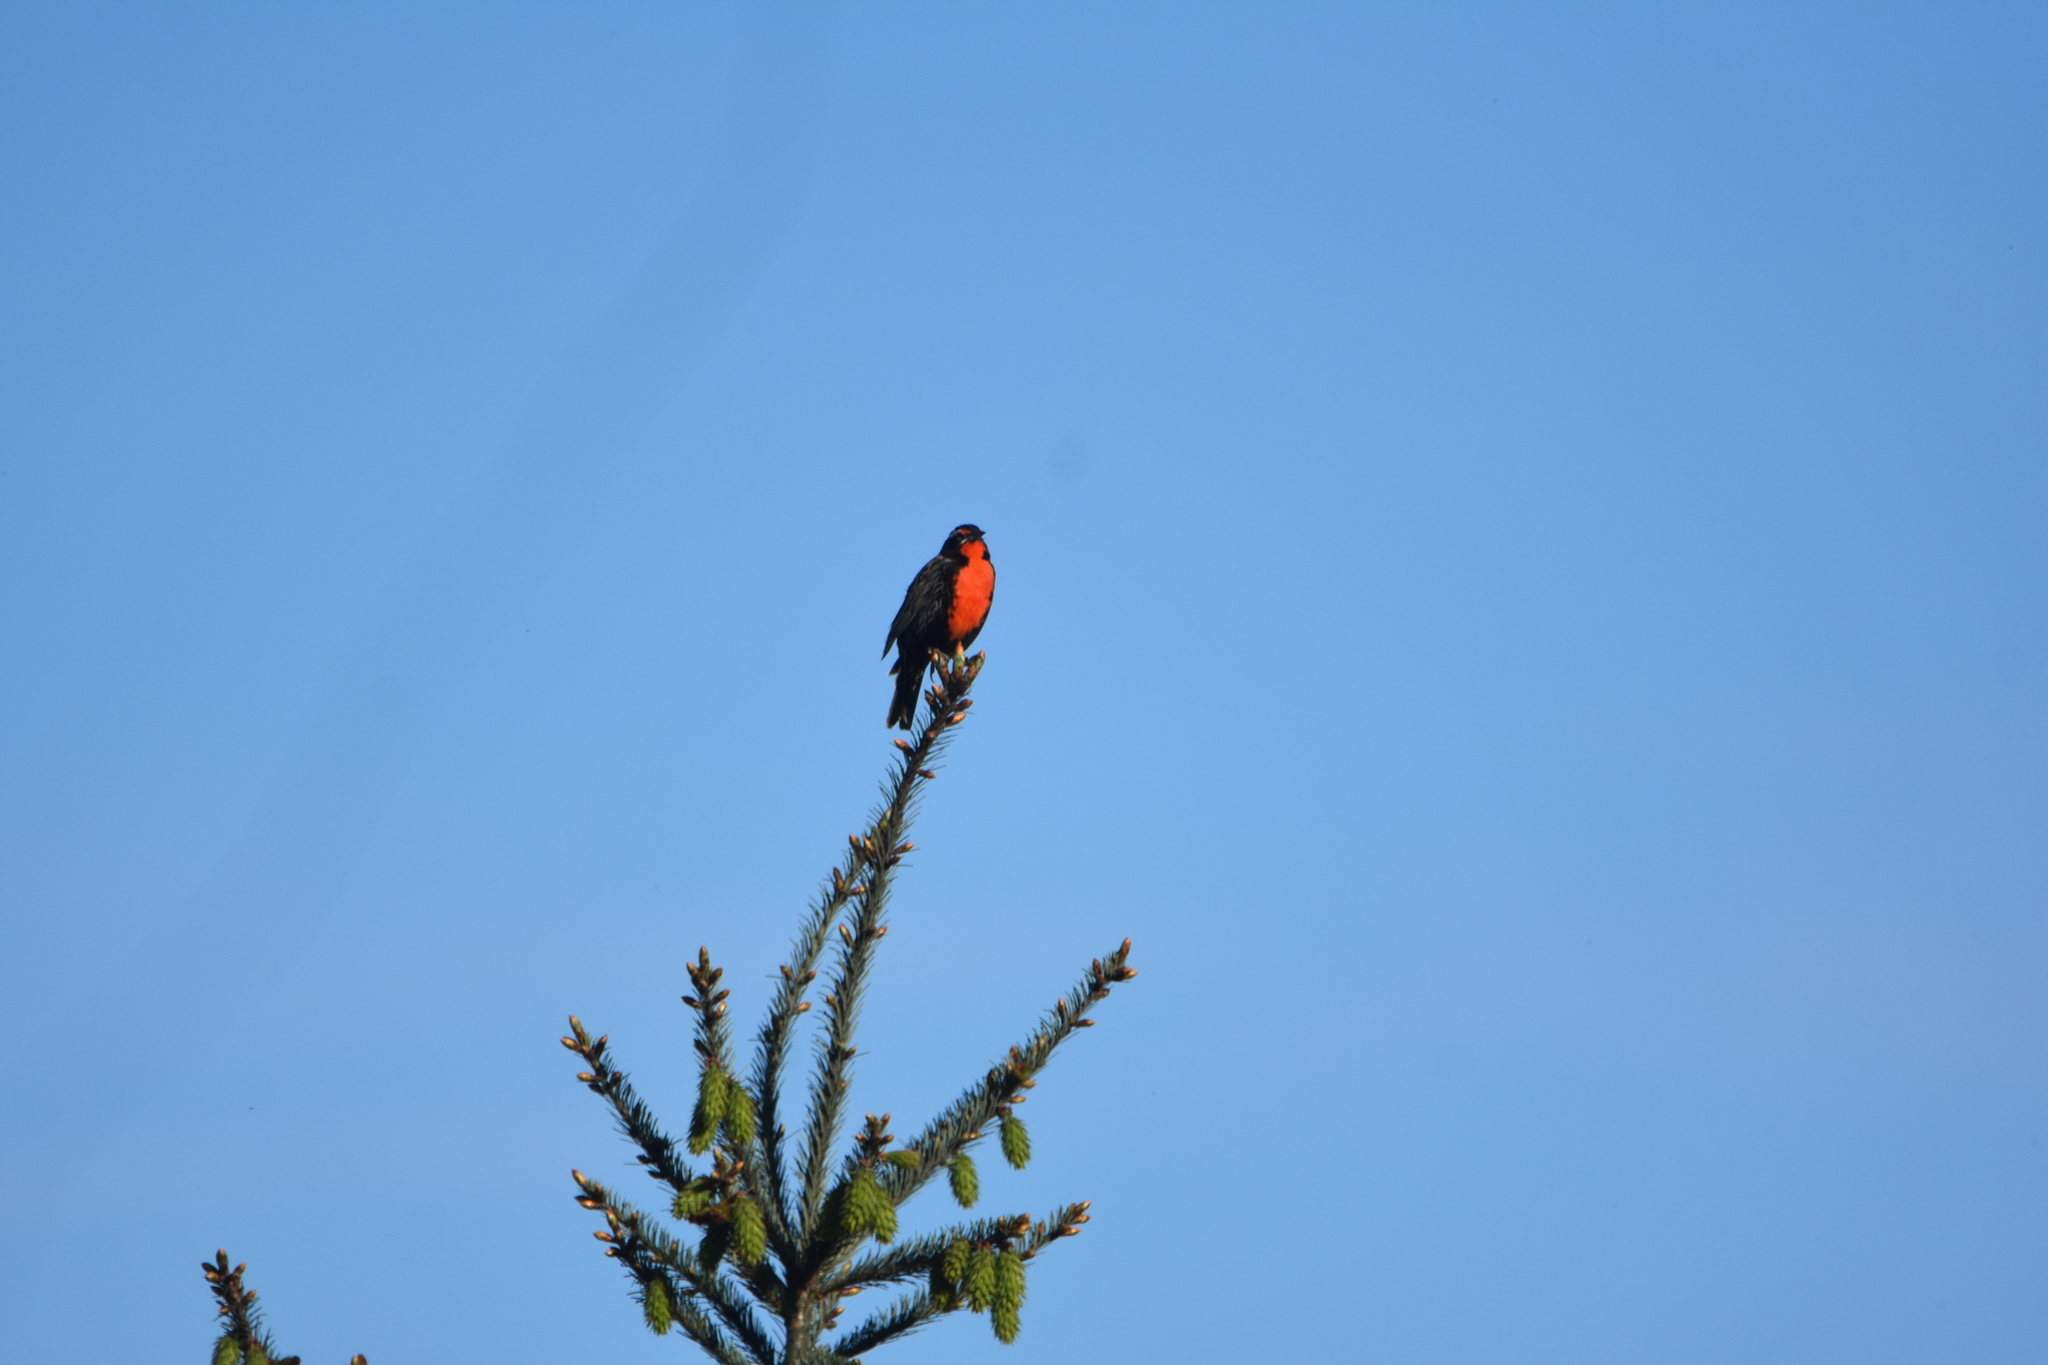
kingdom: Animalia
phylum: Chordata
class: Aves
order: Passeriformes
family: Icteridae
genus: Sturnella
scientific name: Sturnella loyca
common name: Long-tailed meadowlark
